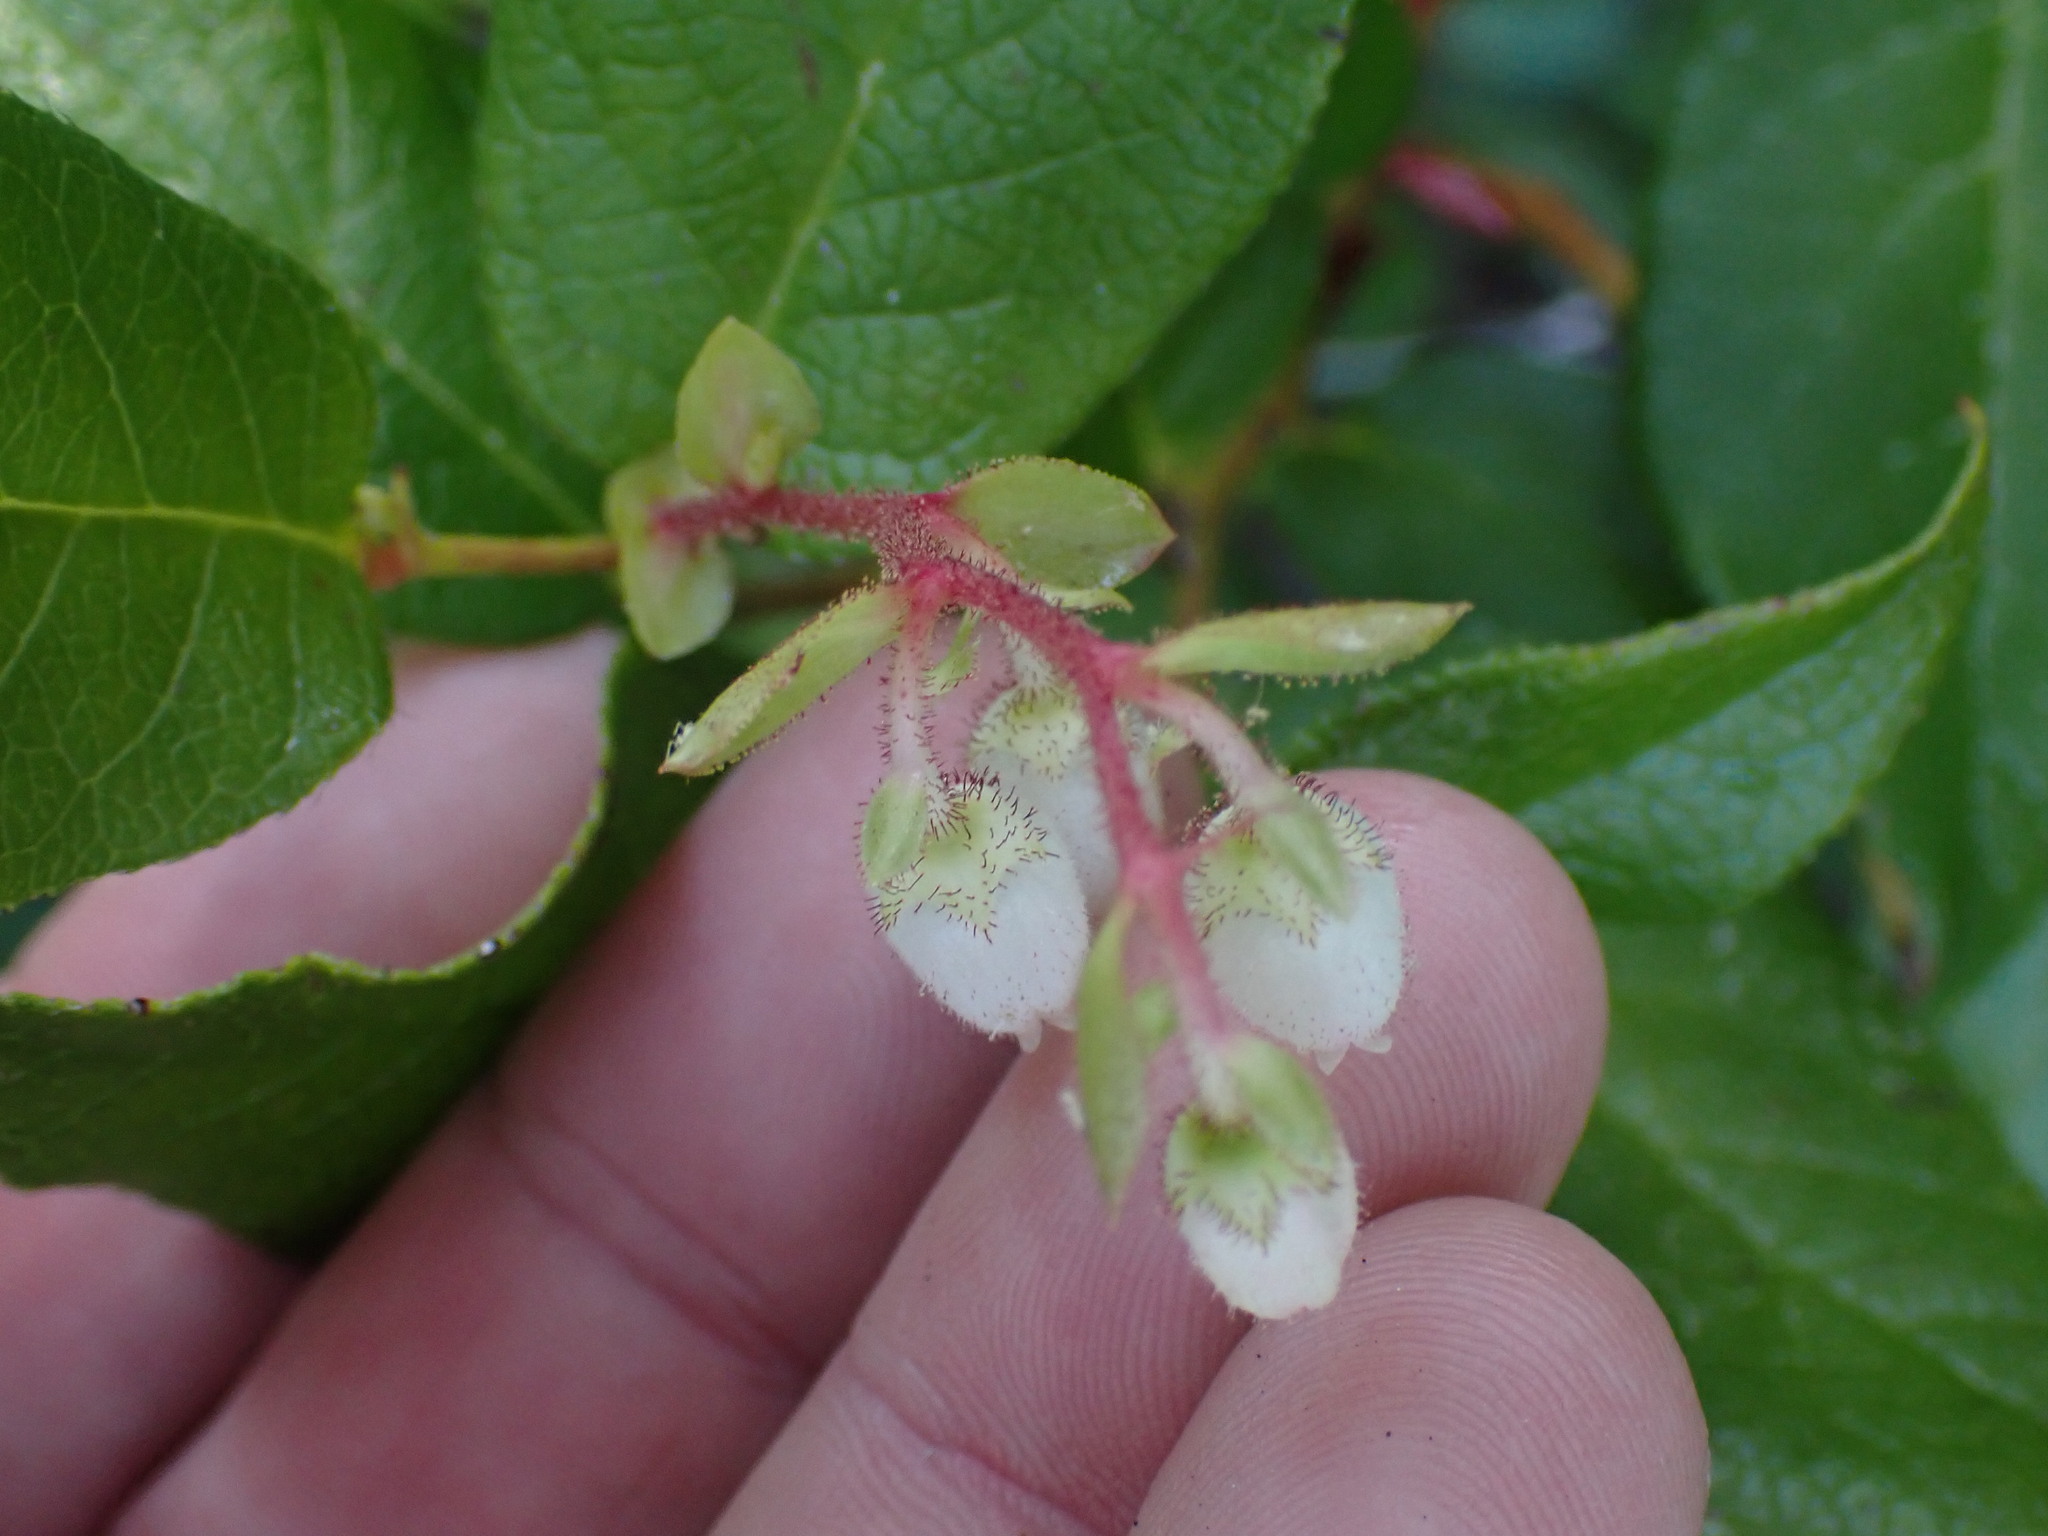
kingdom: Plantae
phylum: Tracheophyta
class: Magnoliopsida
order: Ericales
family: Ericaceae
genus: Gaultheria
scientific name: Gaultheria shallon
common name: Shallon
